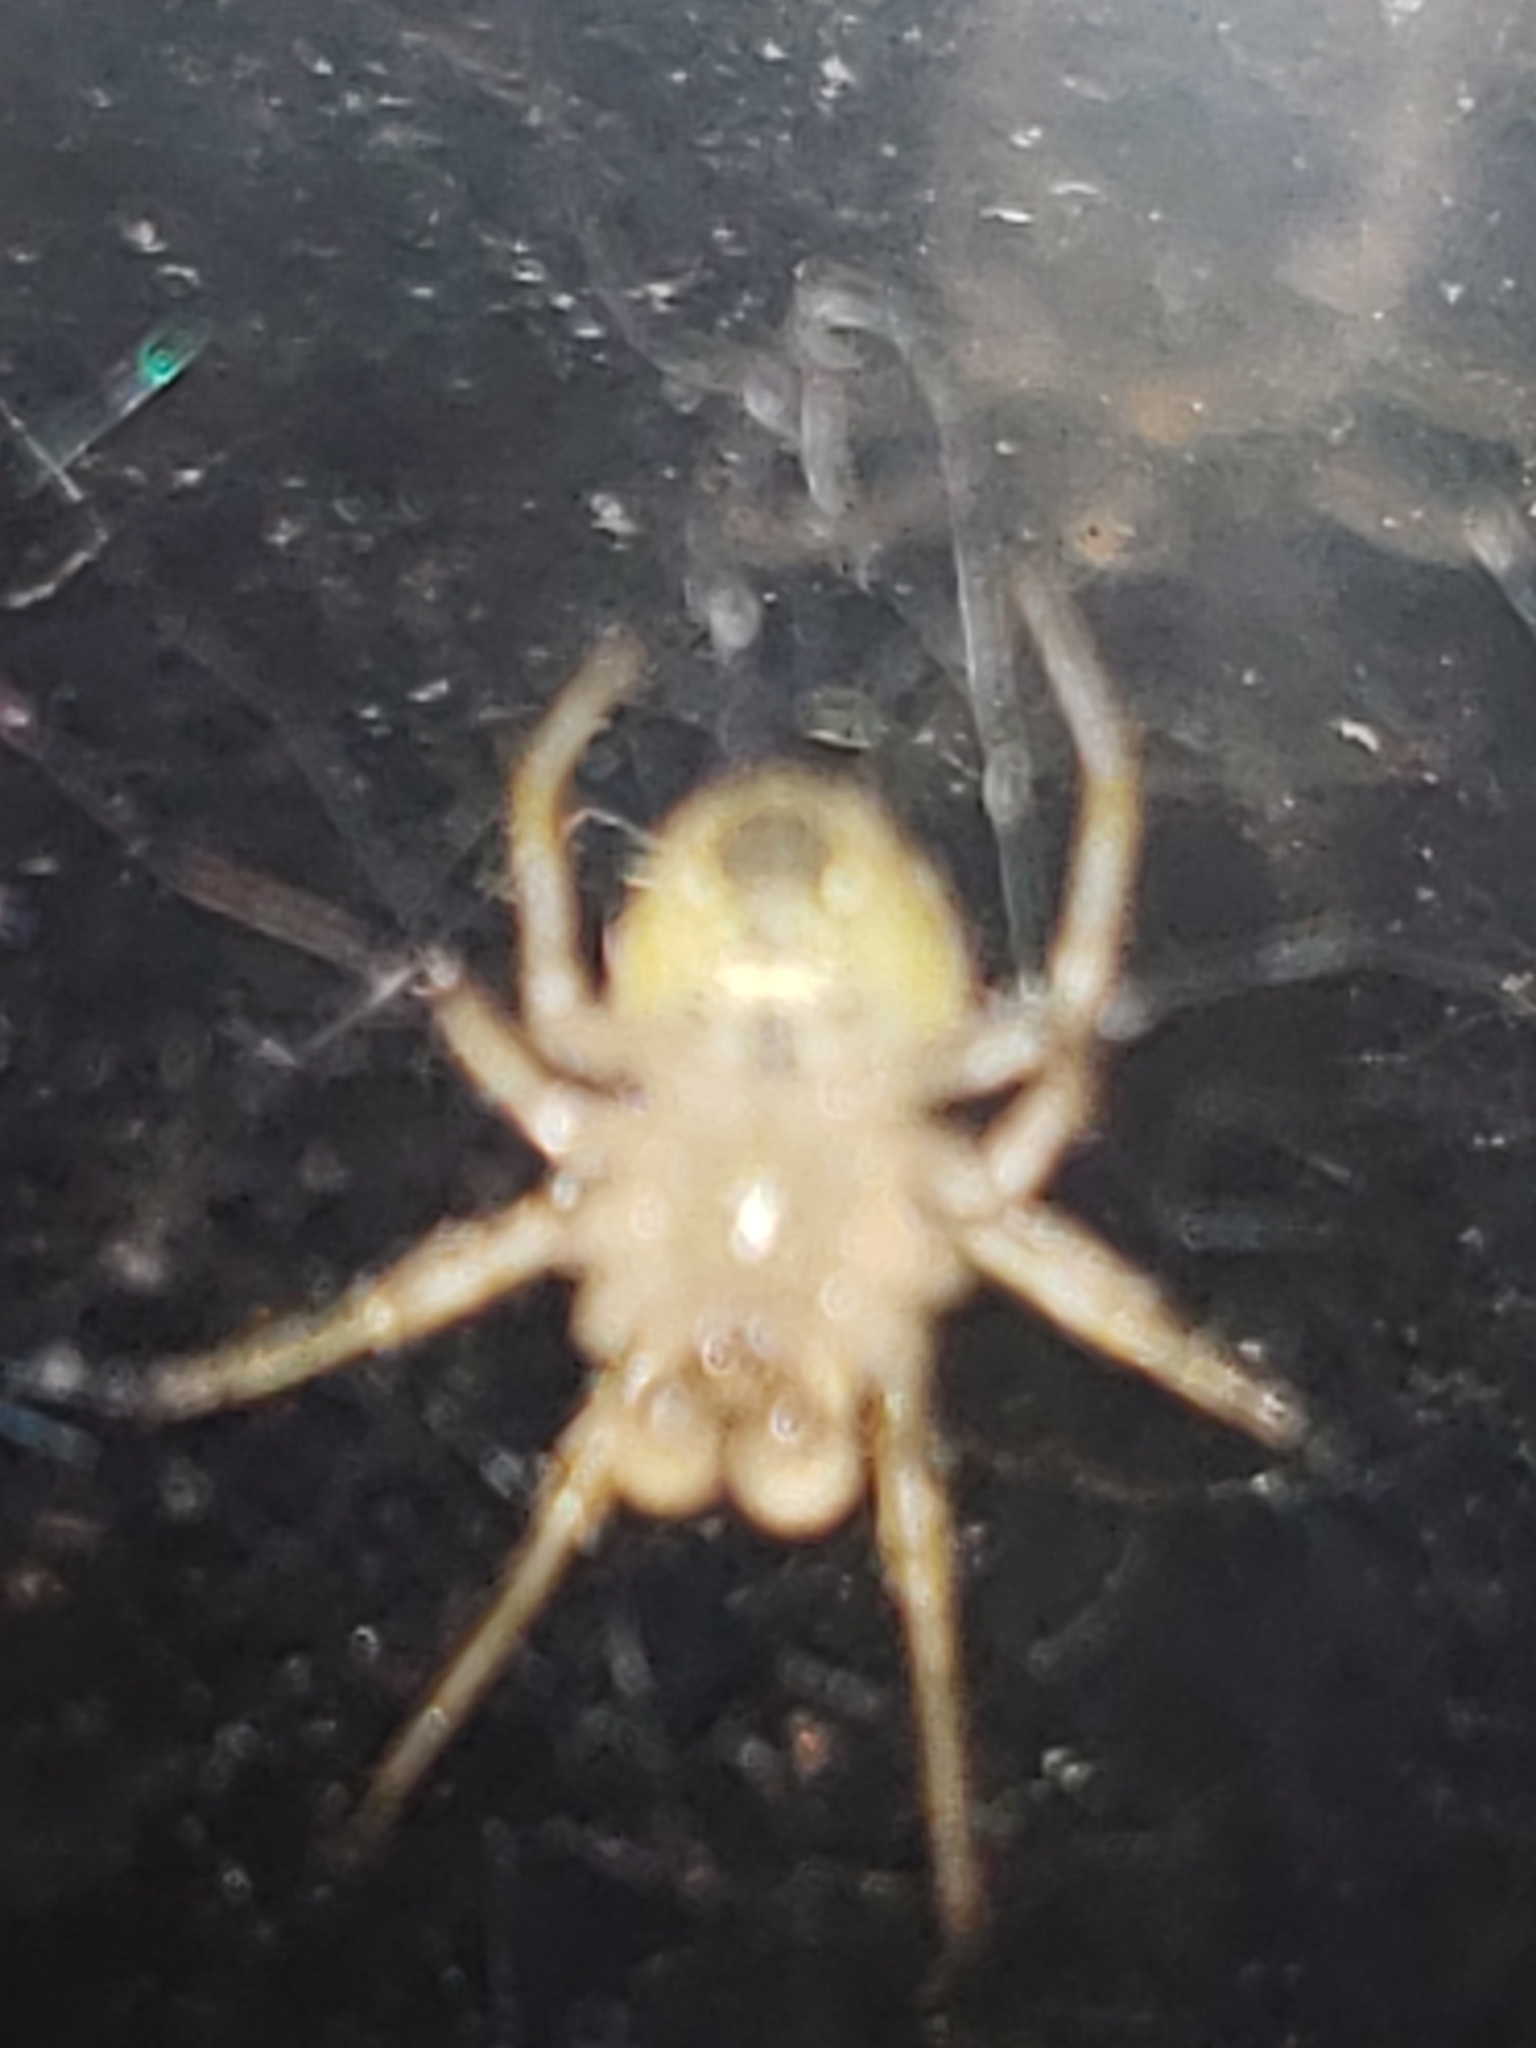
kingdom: Animalia
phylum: Arthropoda
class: Arachnida
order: Araneae
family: Araneidae
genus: Araneus
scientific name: Araneus pegnia
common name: Orb weavers
